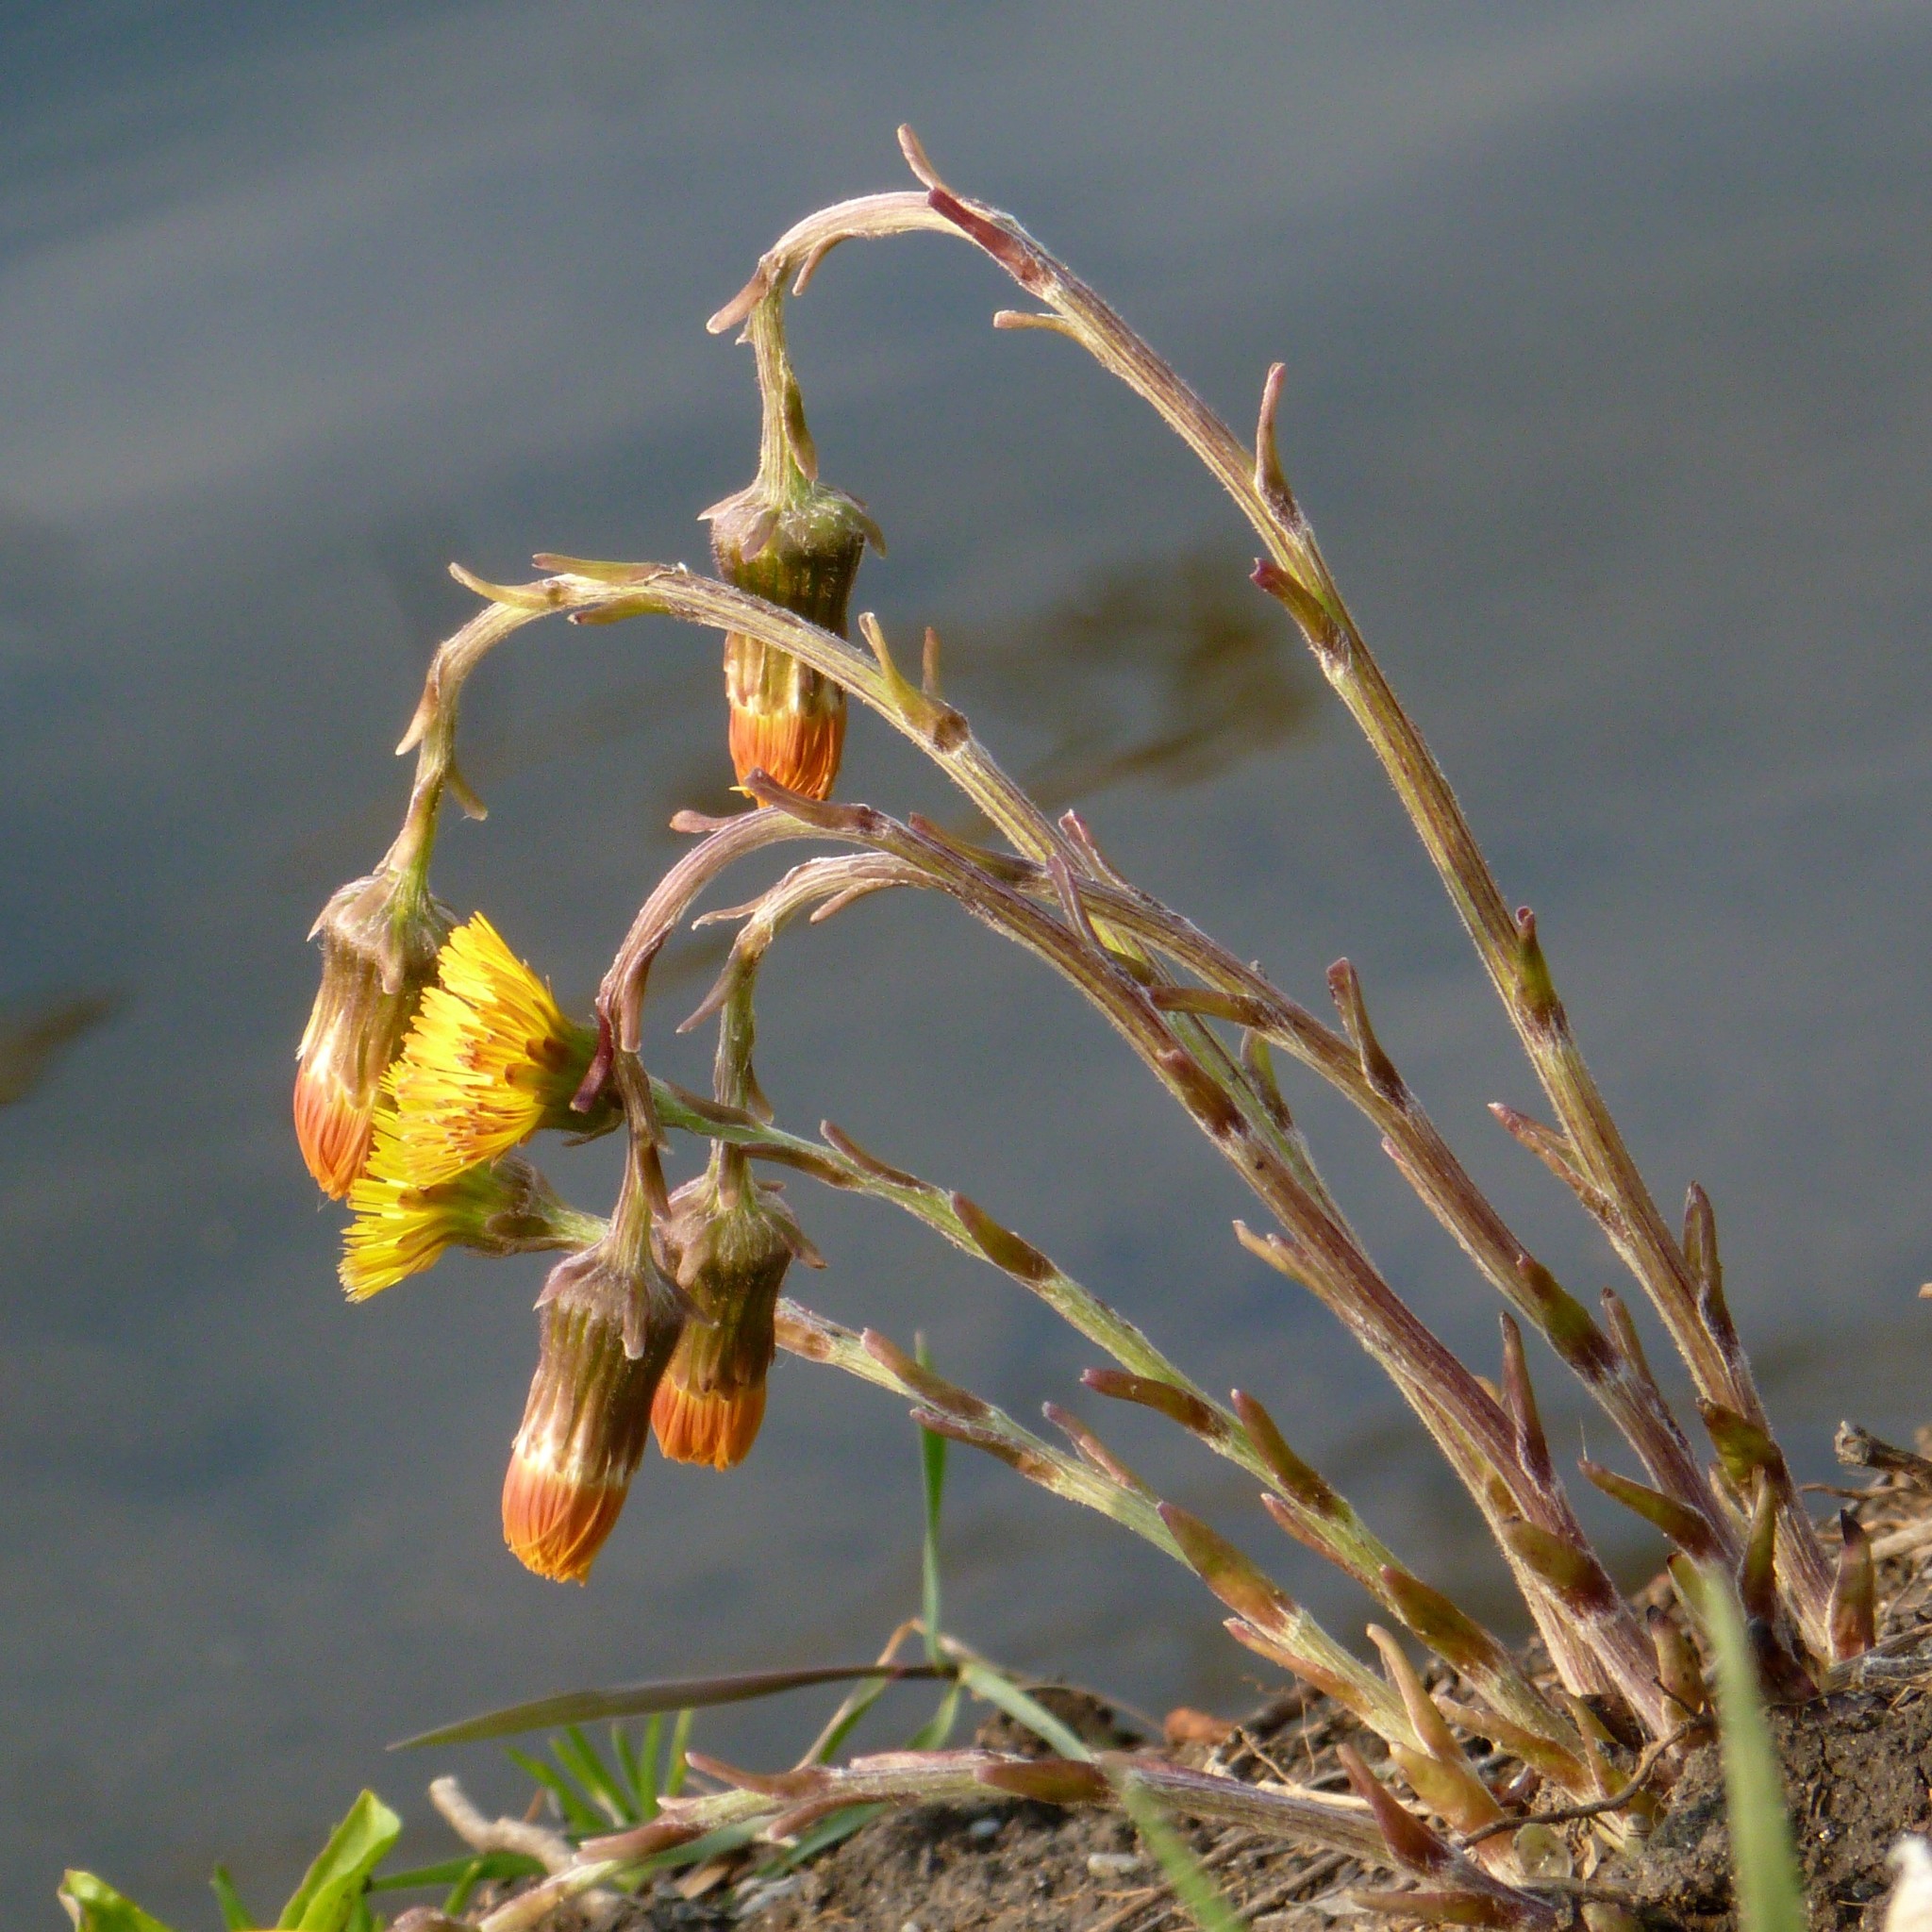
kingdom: Plantae
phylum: Tracheophyta
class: Magnoliopsida
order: Asterales
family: Asteraceae
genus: Tussilago
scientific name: Tussilago farfara
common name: Coltsfoot
